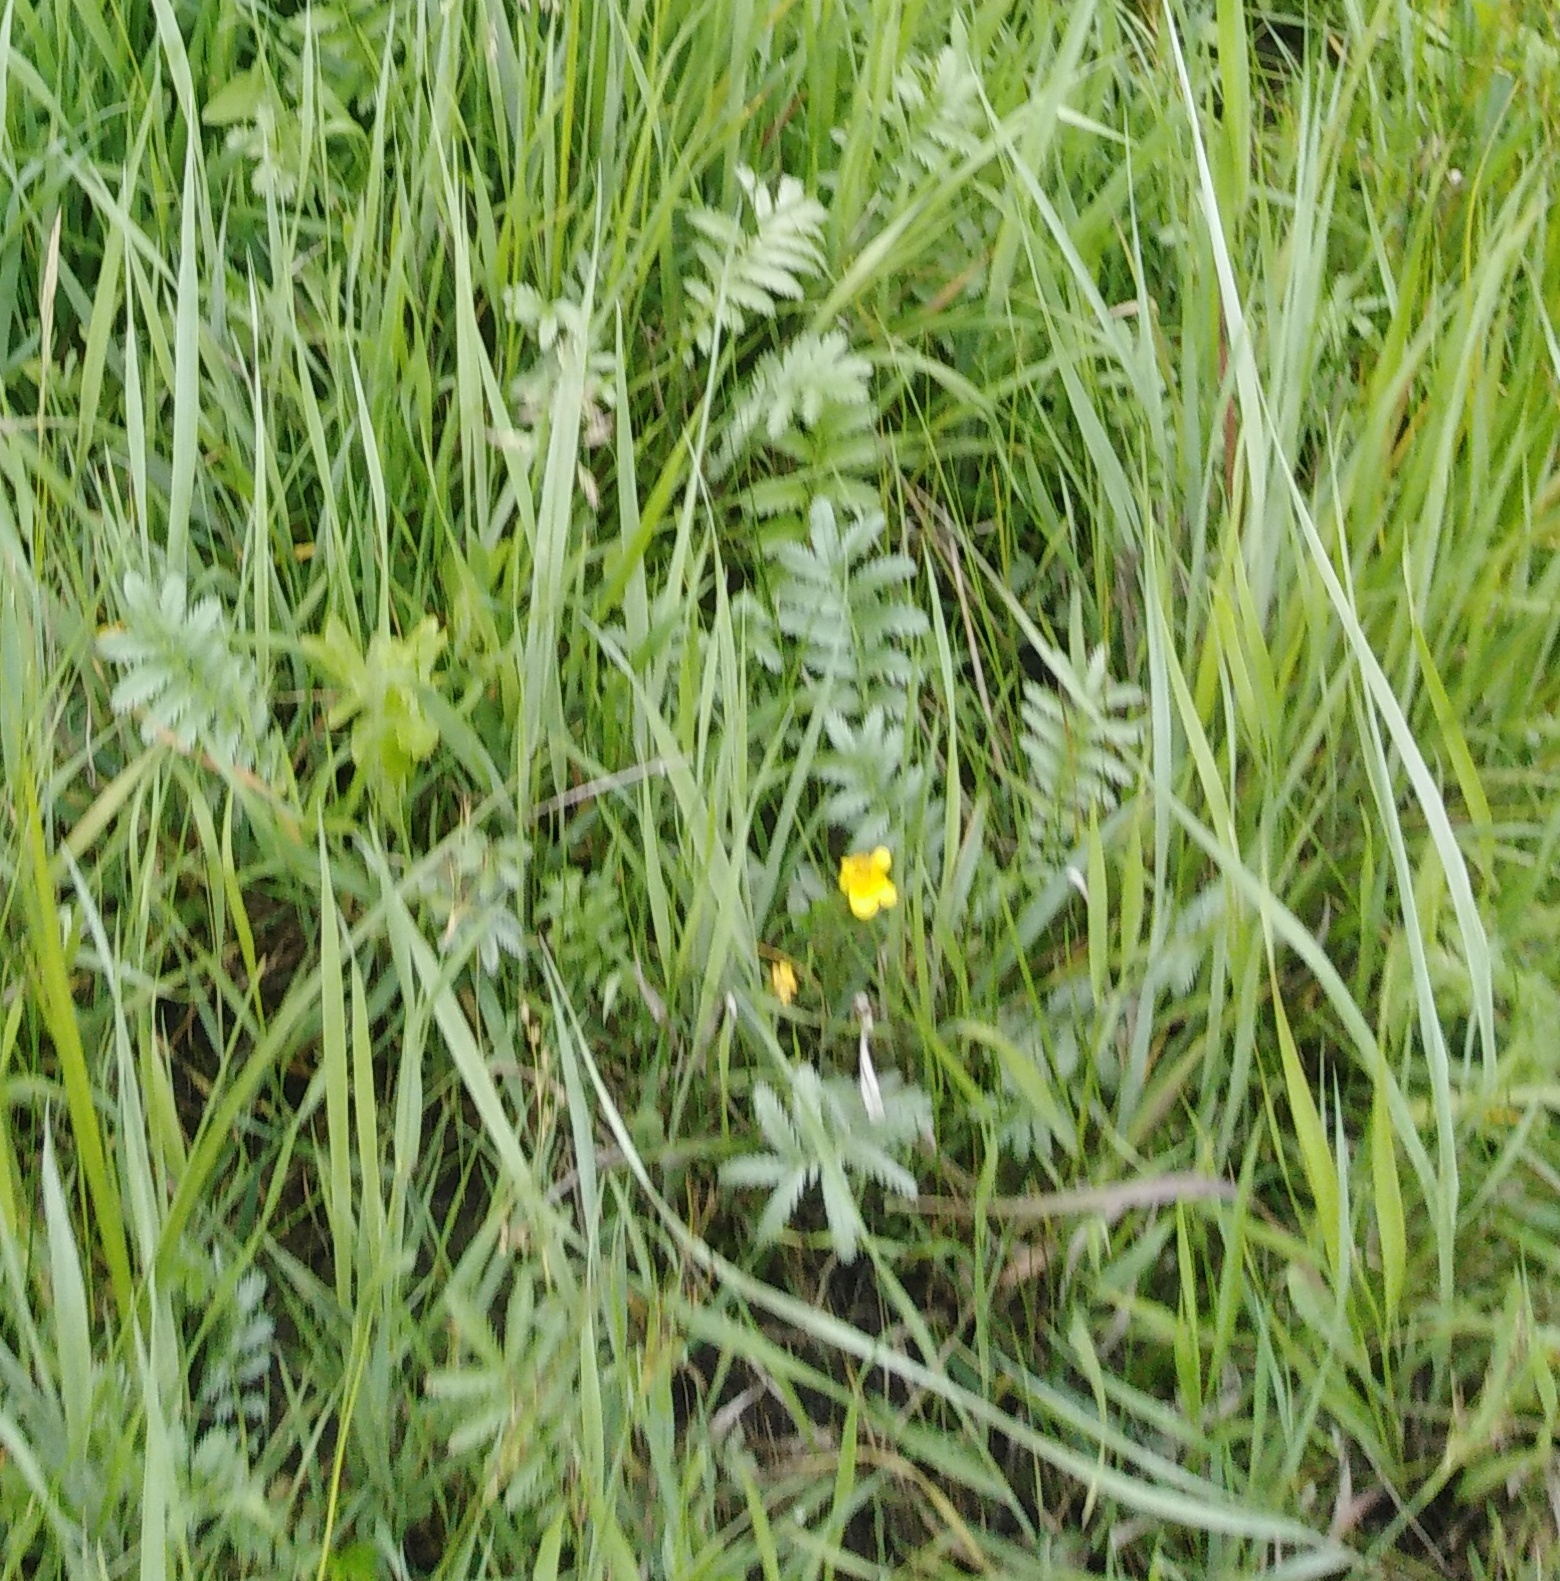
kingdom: Plantae
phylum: Tracheophyta
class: Magnoliopsida
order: Rosales
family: Rosaceae
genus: Argentina
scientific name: Argentina anserina
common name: Common silverweed
